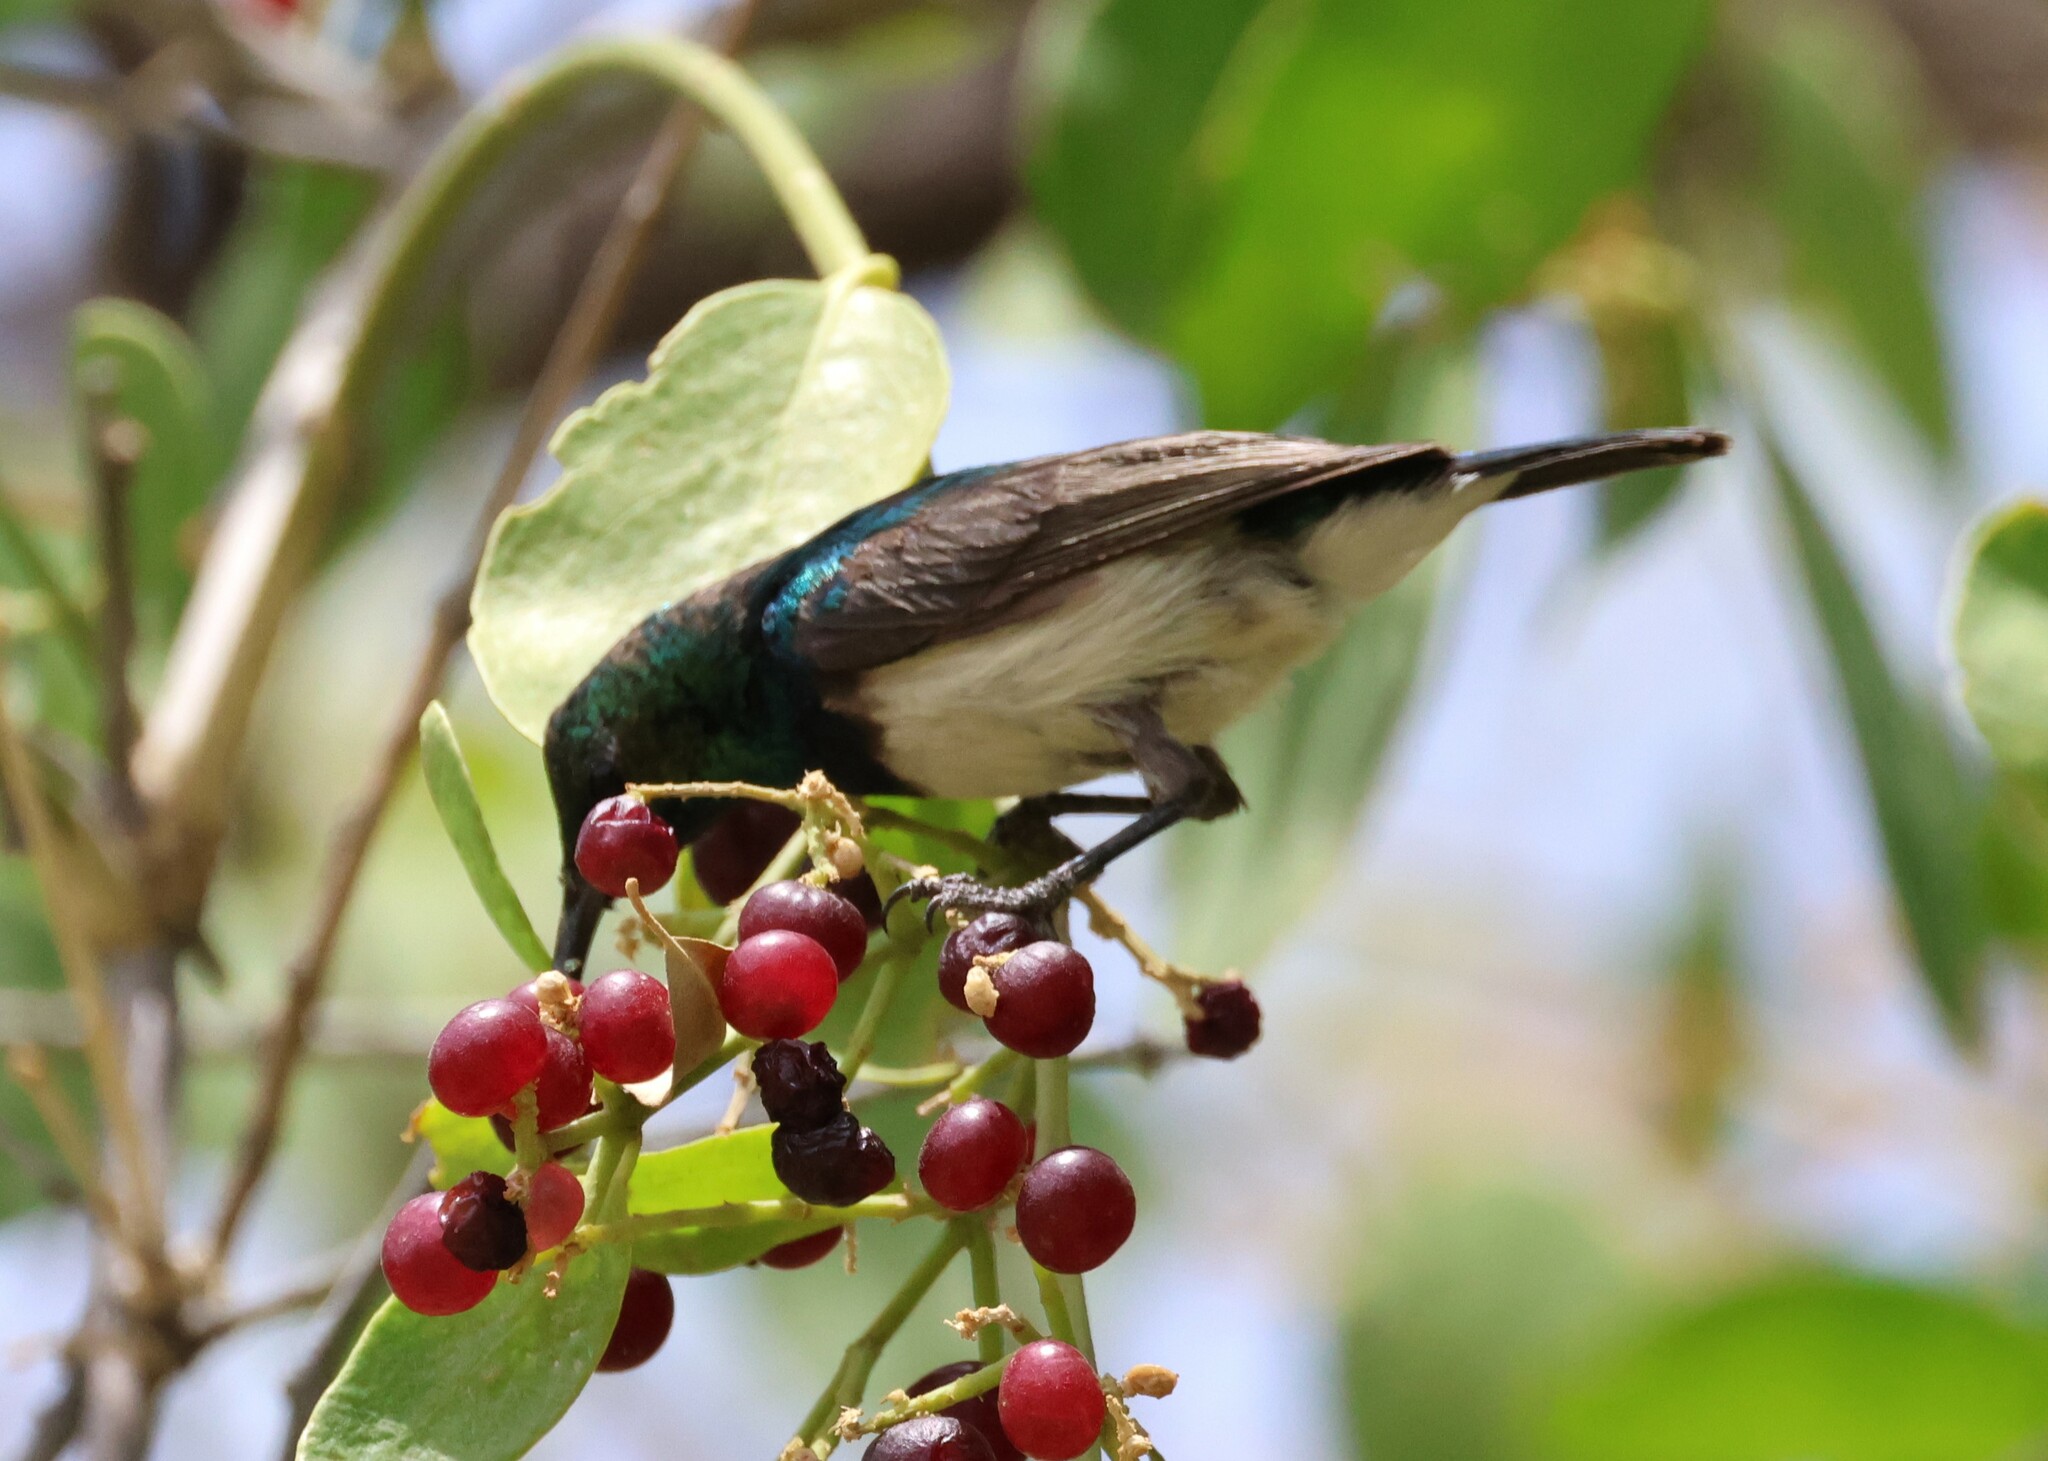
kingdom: Animalia
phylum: Chordata
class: Aves
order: Passeriformes
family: Nectariniidae
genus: Cinnyris
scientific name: Cinnyris talatala
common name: White-bellied sunbird
